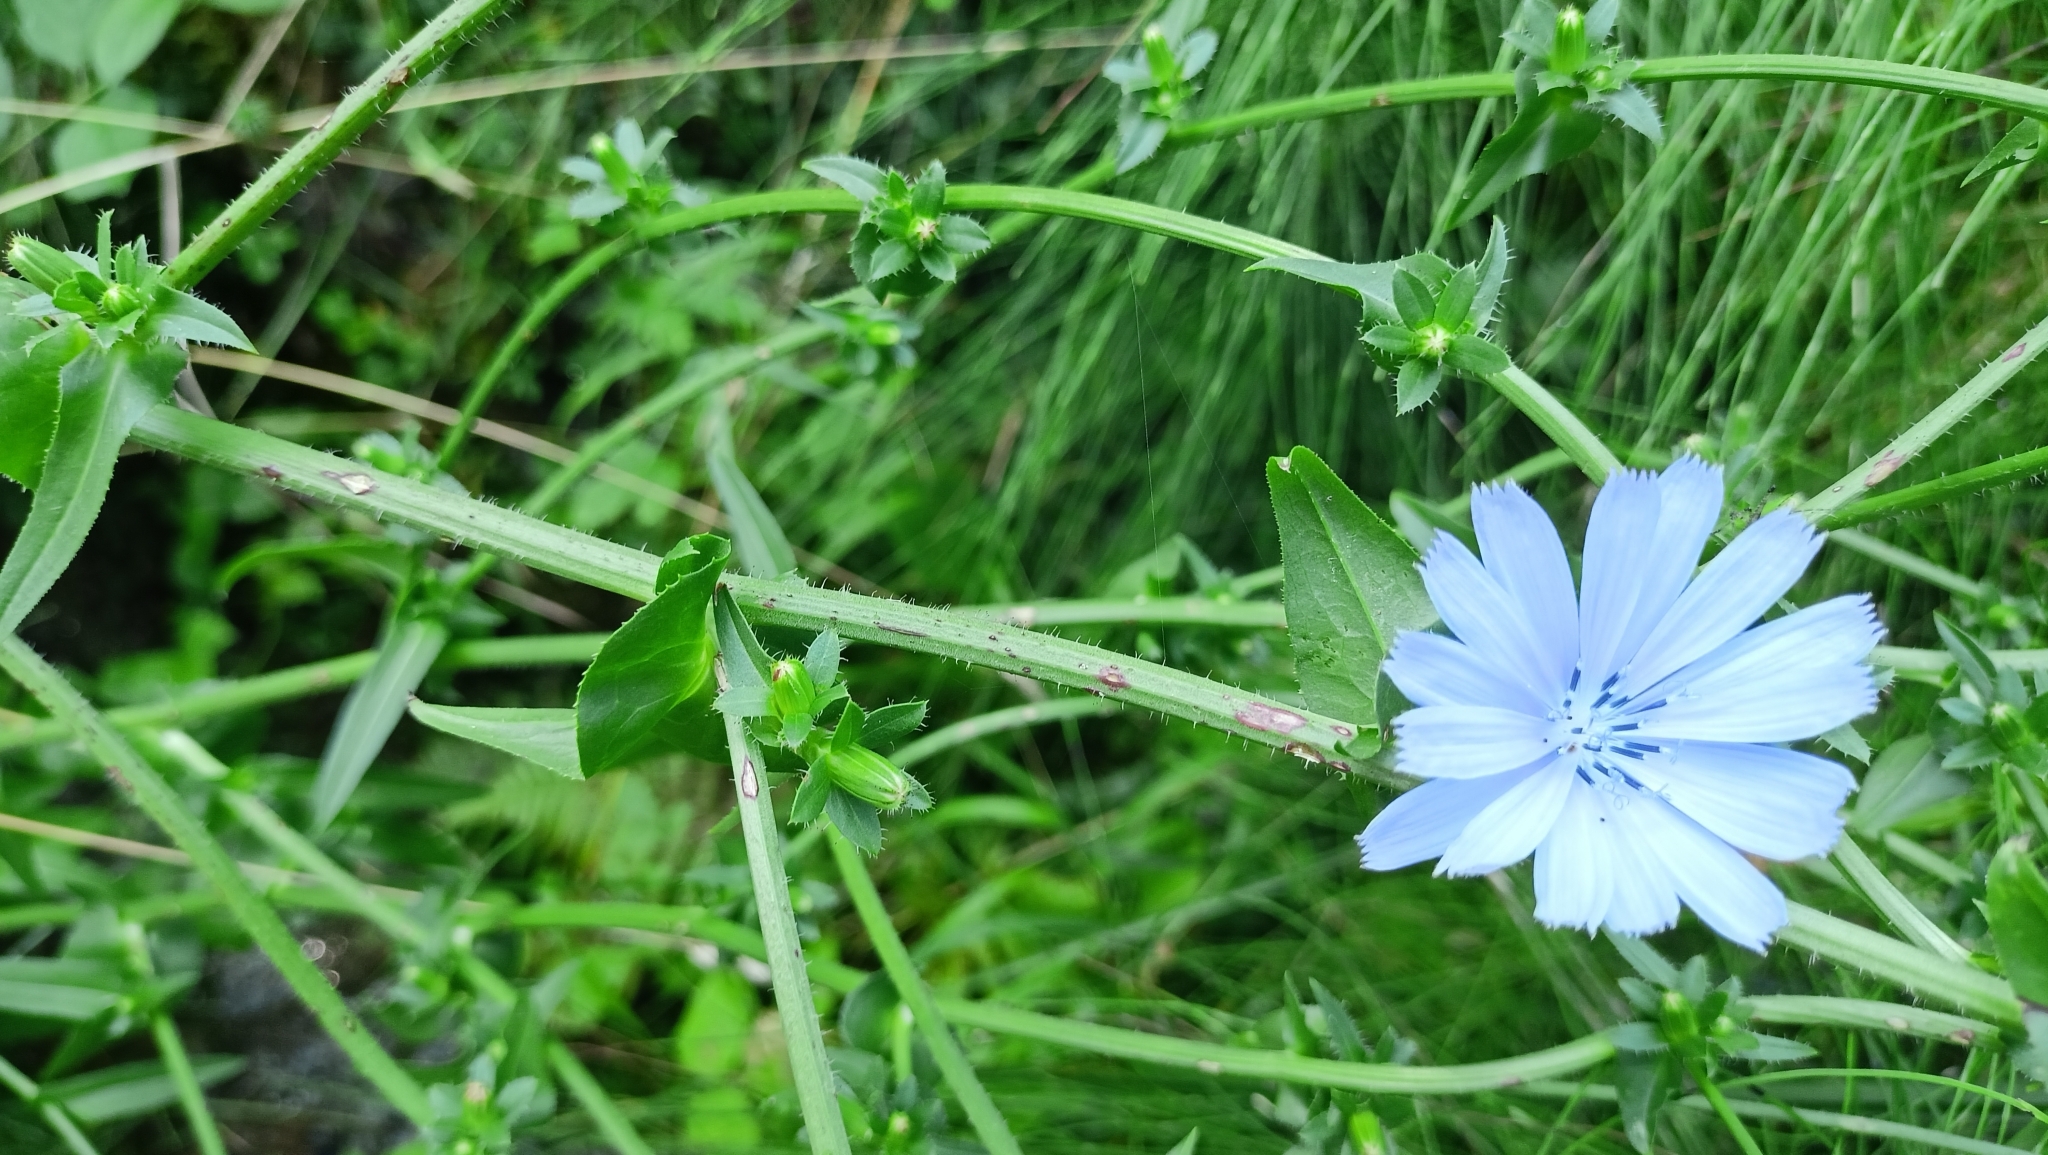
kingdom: Plantae
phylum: Tracheophyta
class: Magnoliopsida
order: Asterales
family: Asteraceae
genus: Cichorium
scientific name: Cichorium intybus
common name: Chicory
